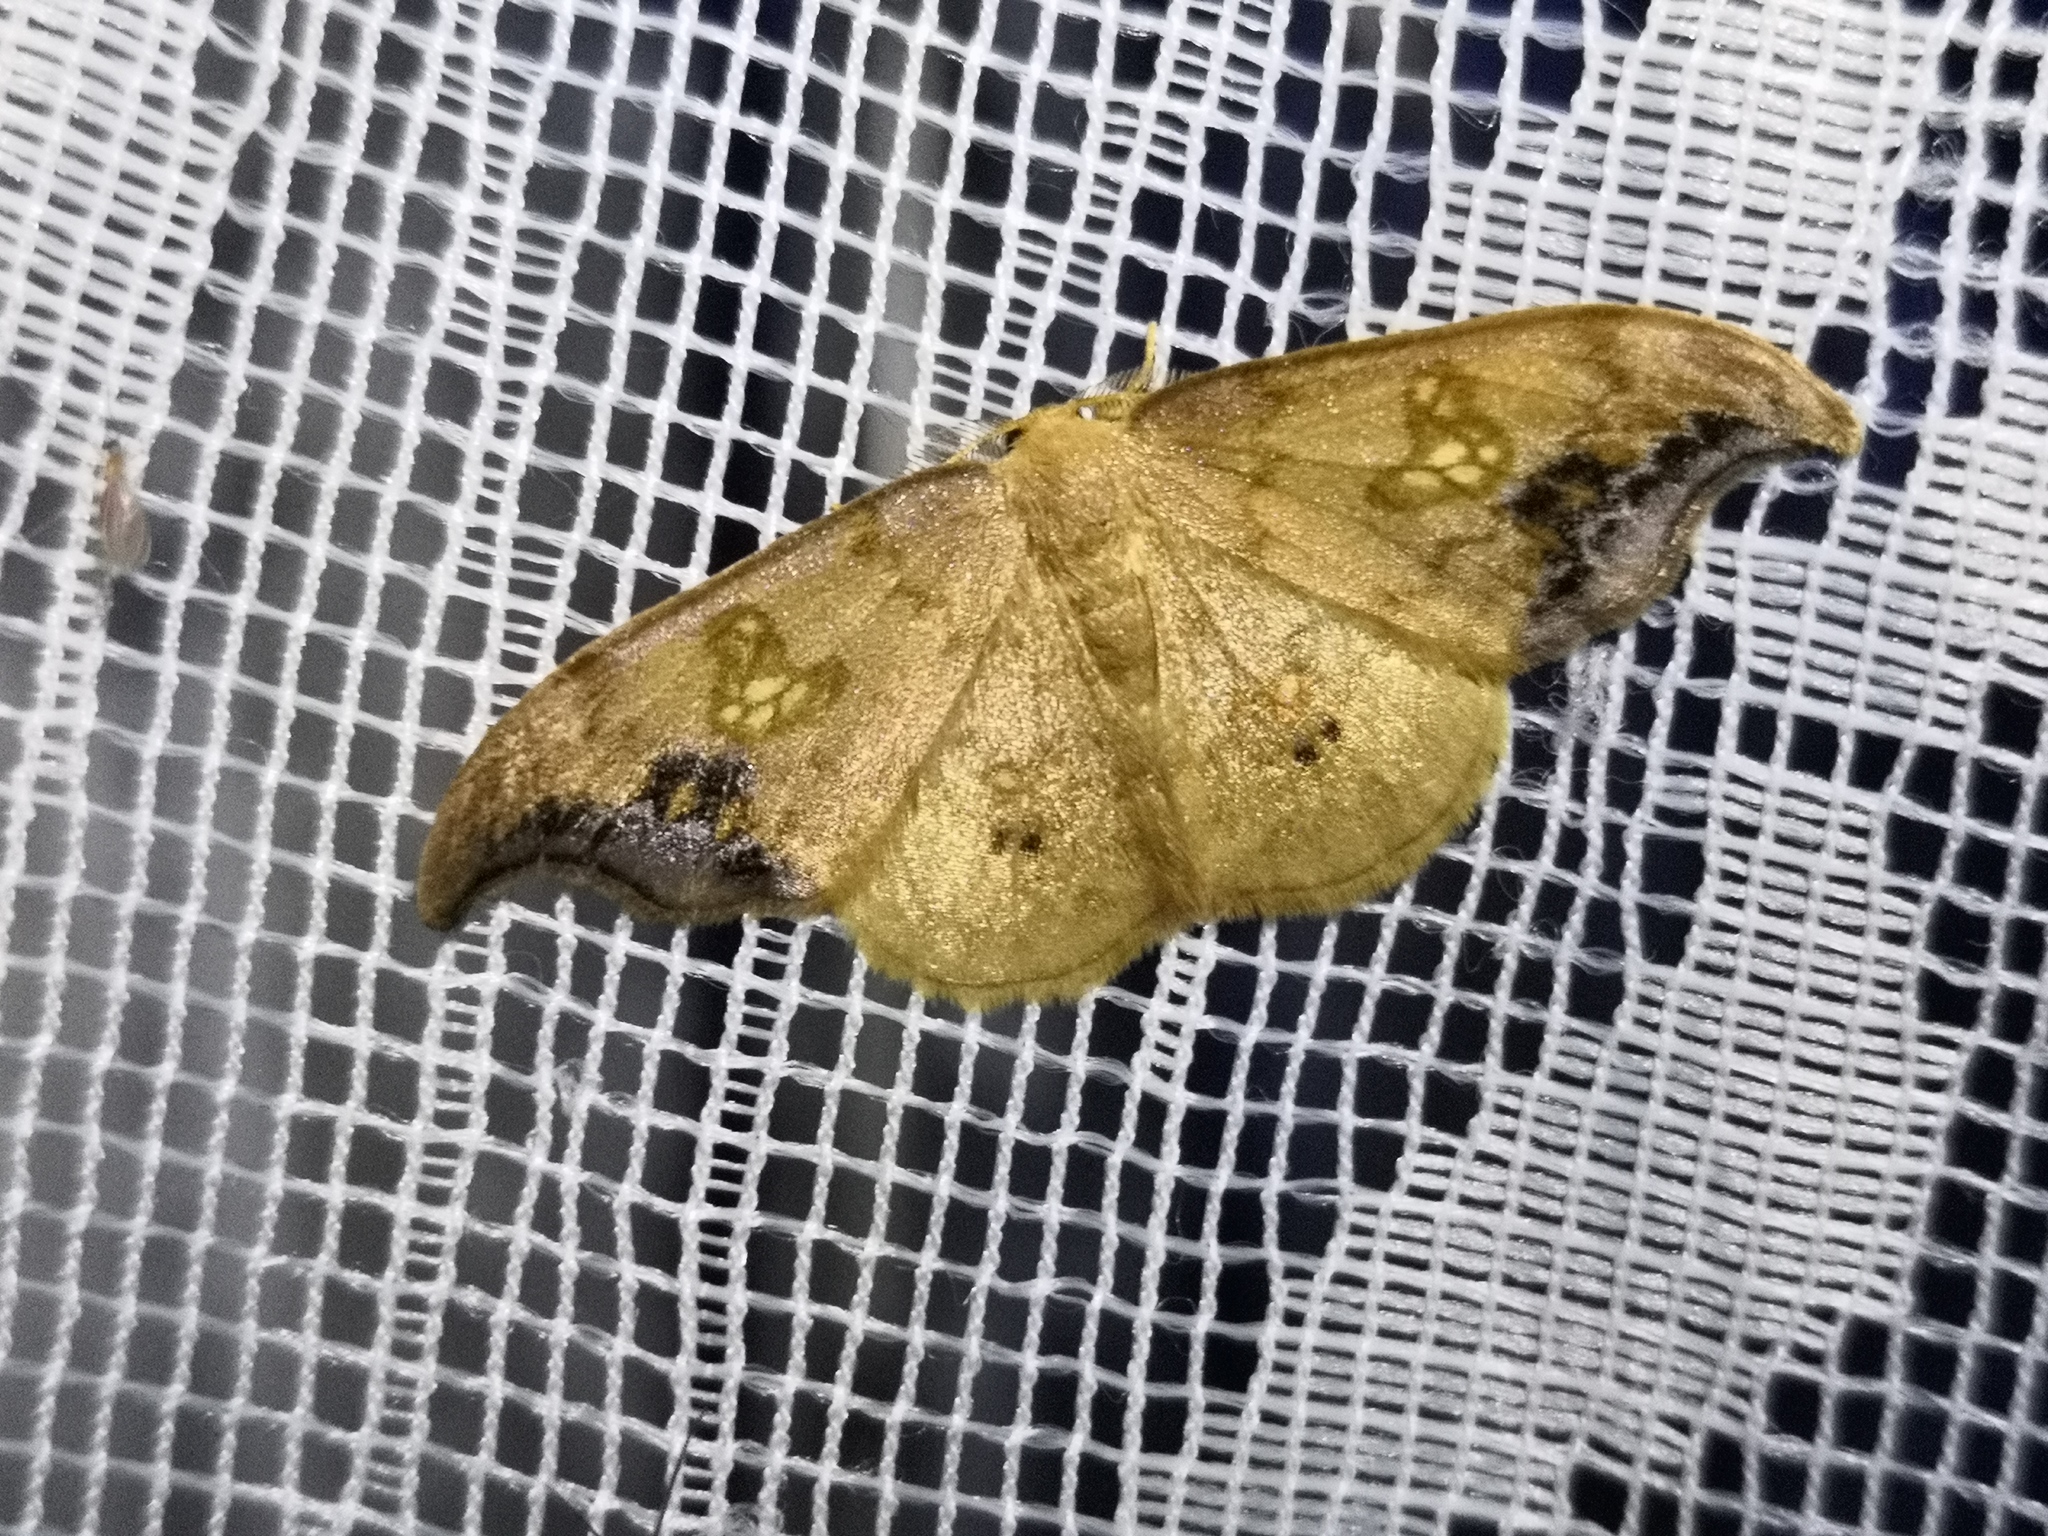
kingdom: Animalia
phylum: Arthropoda
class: Insecta
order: Lepidoptera
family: Drepanidae
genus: Sabra
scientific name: Sabra harpagula
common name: Scarce hook-tip
